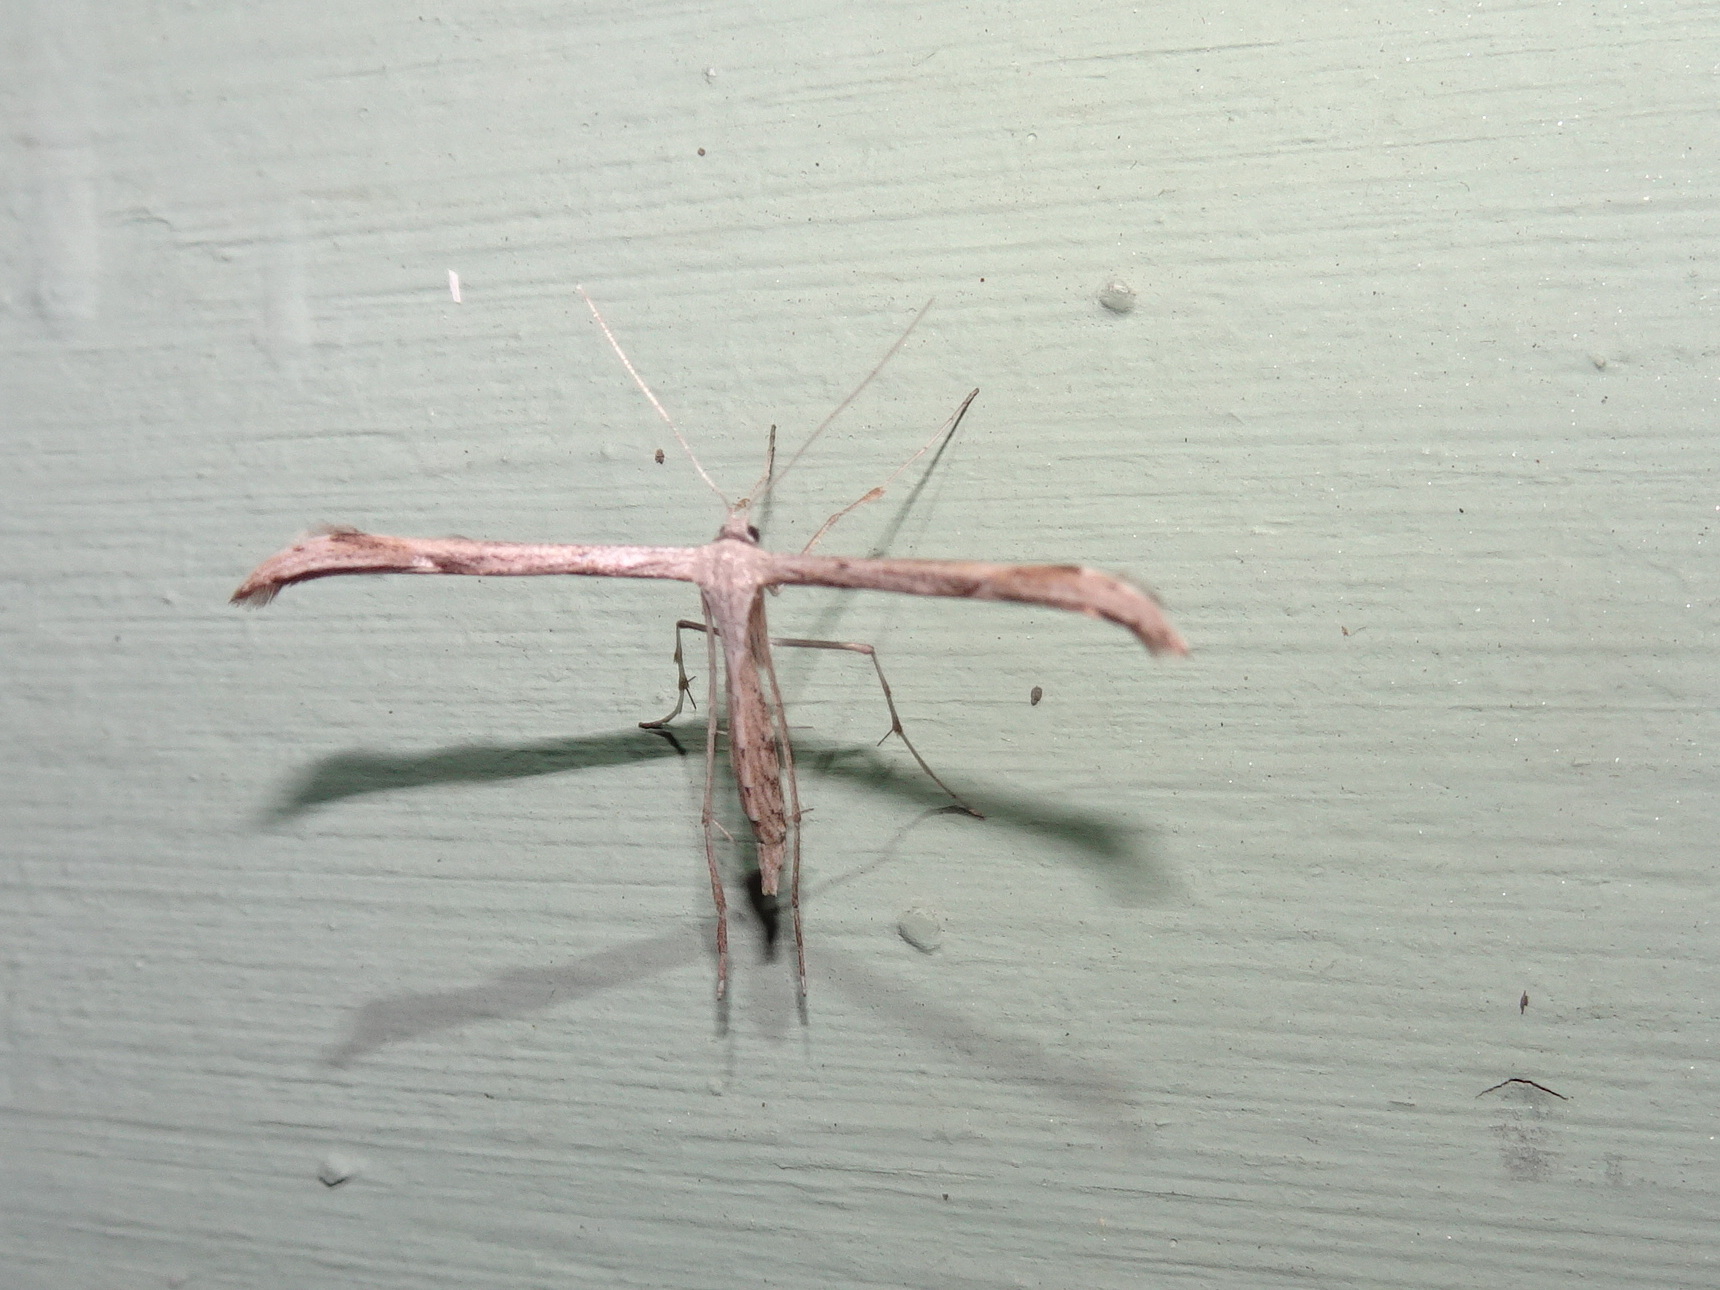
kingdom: Animalia
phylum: Arthropoda
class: Insecta
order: Lepidoptera
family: Pterophoridae
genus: Emmelina
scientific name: Emmelina monodactyla
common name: Common plume
